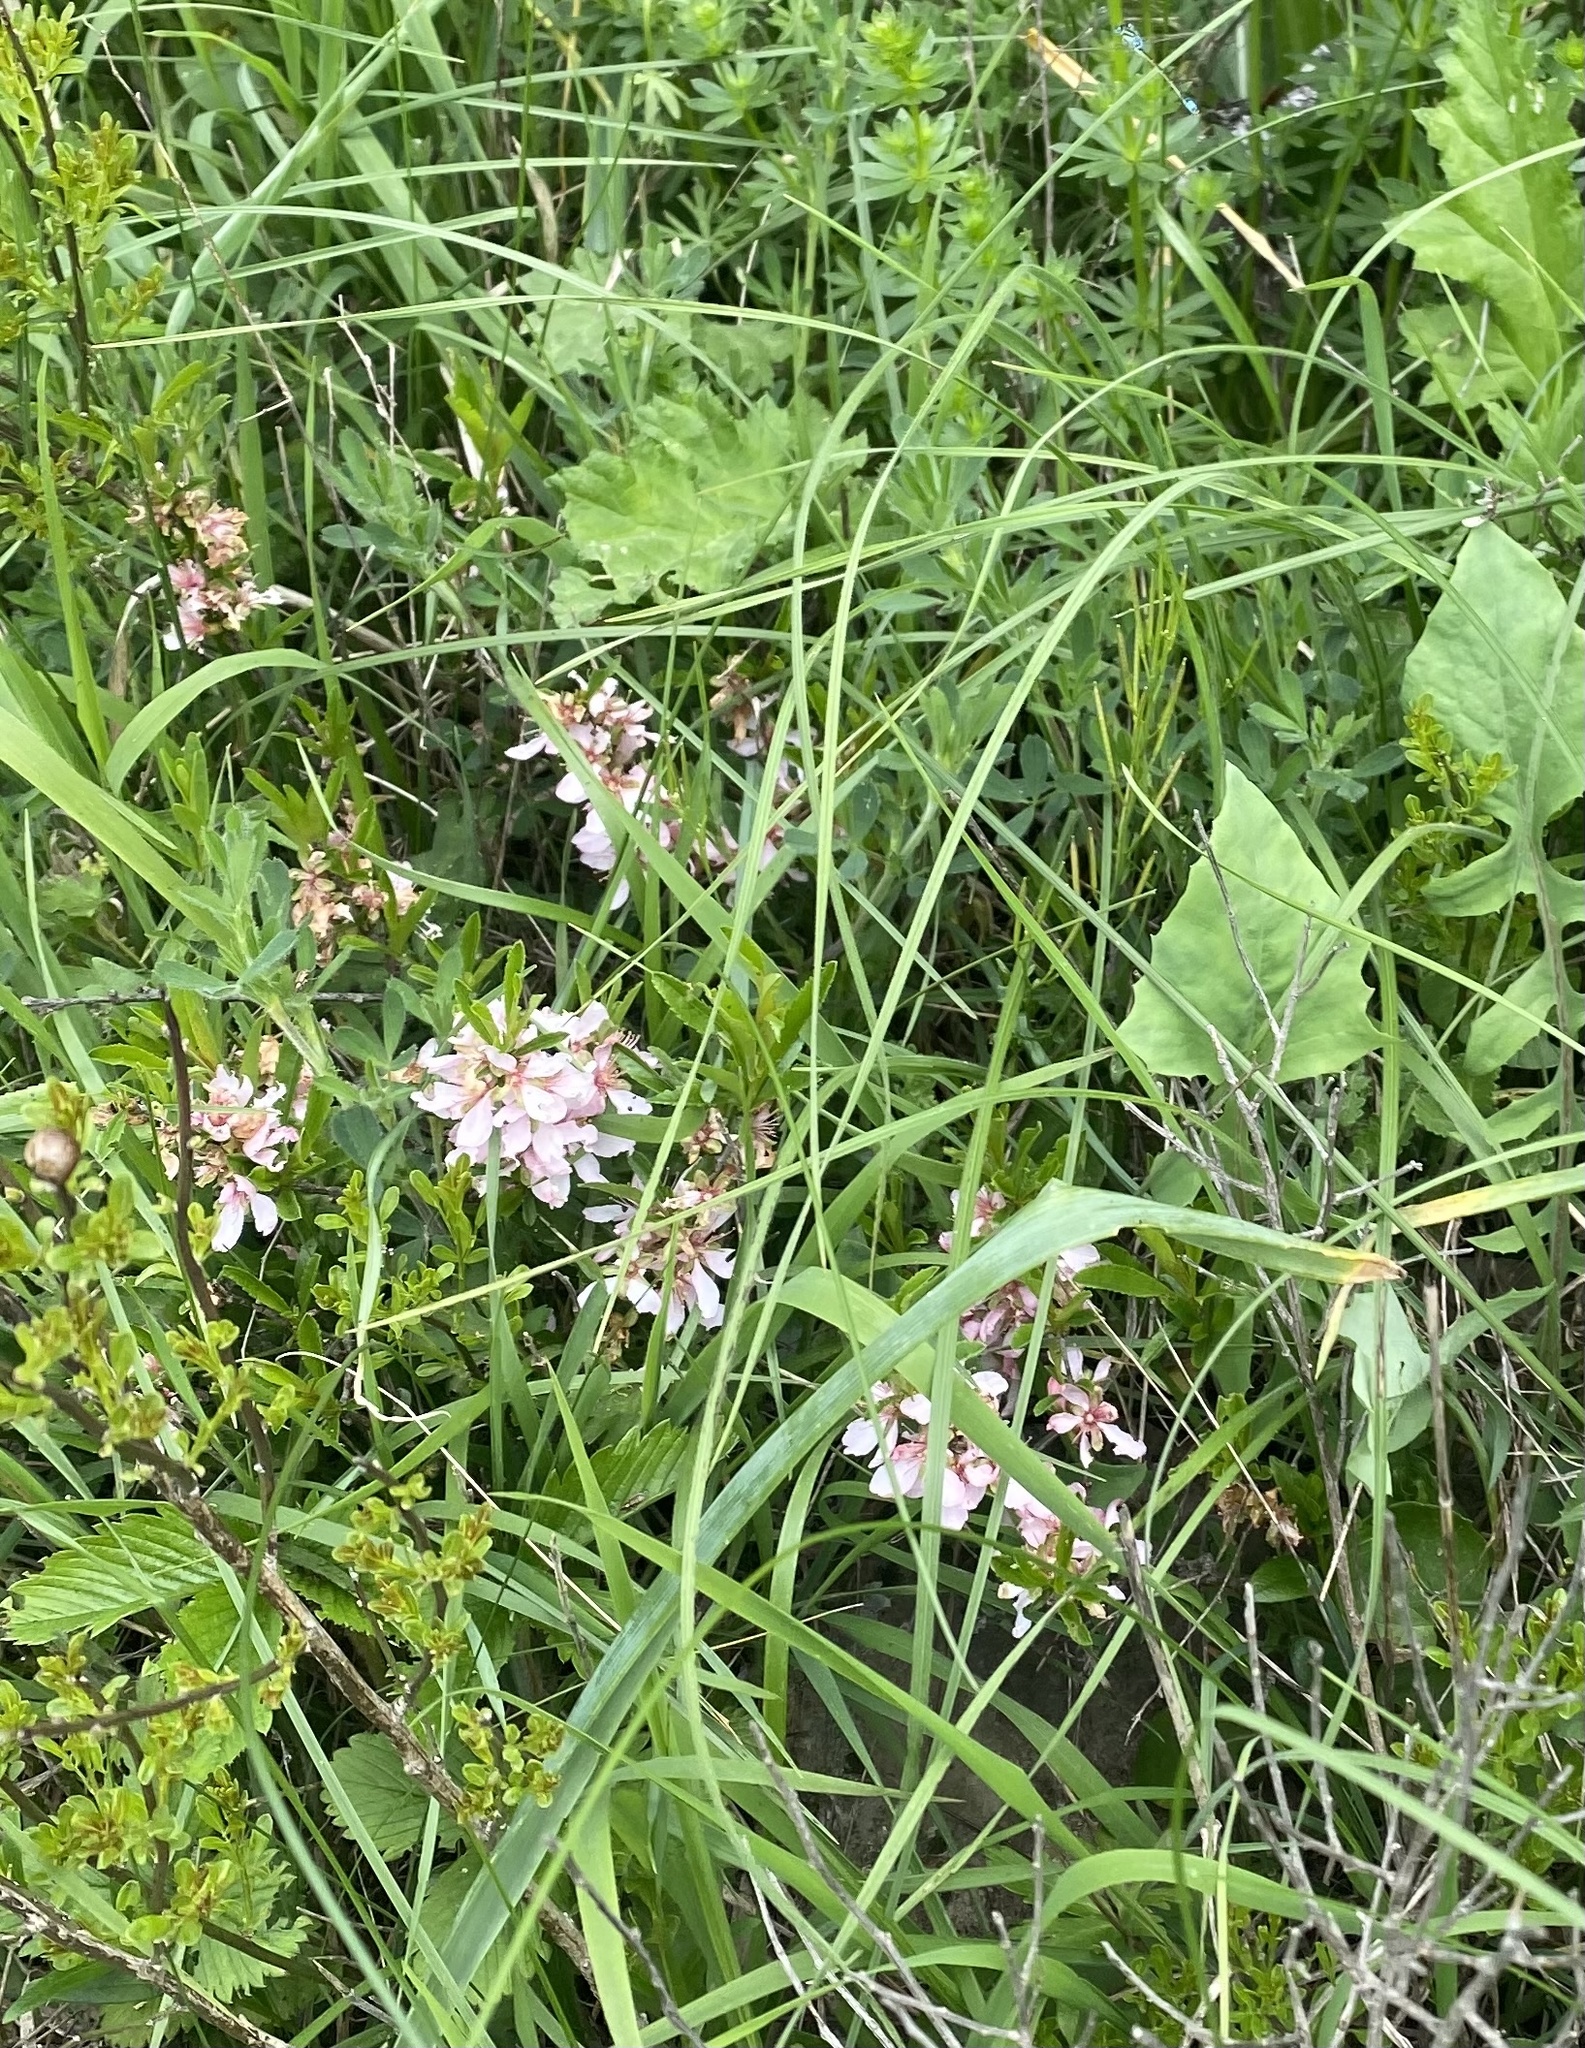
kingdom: Plantae
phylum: Tracheophyta
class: Magnoliopsida
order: Rosales
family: Rosaceae
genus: Prunus
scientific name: Prunus tenella
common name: Dwarf russian almond
